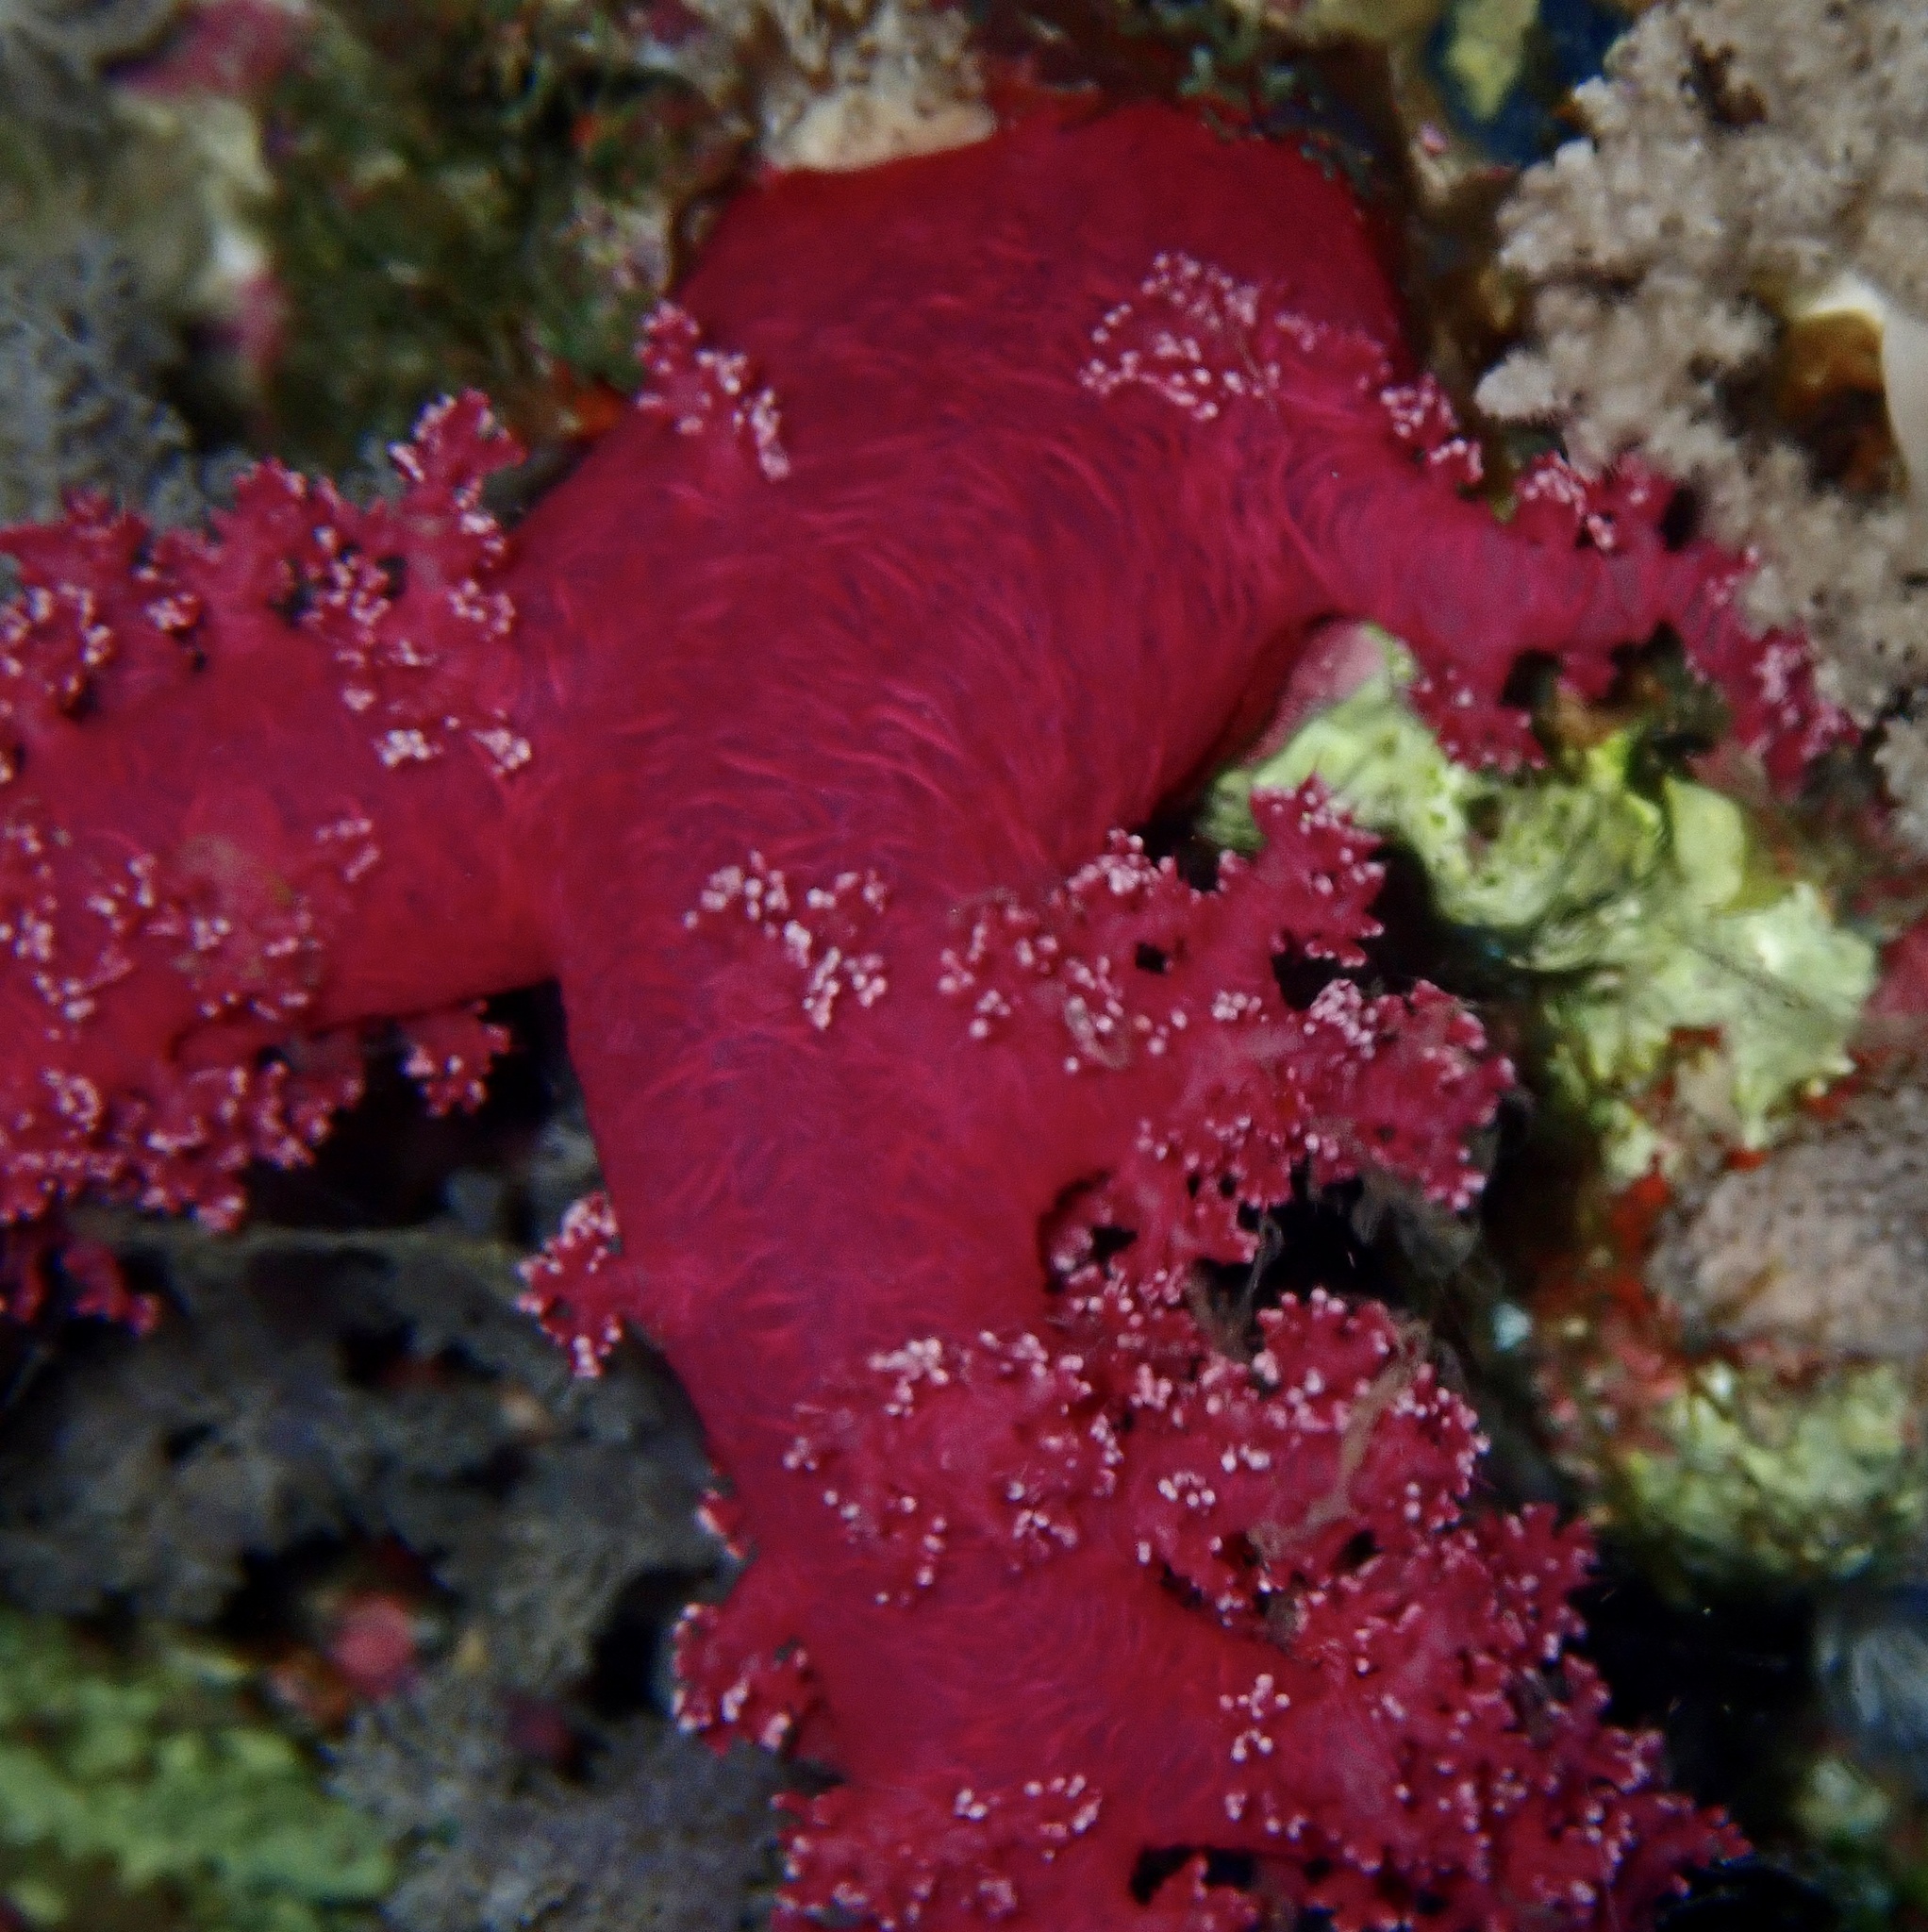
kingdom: Animalia
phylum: Cnidaria
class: Anthozoa
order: Malacalcyonacea
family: Nephtheidae
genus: Dendronephthya
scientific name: Dendronephthya hemprichi
